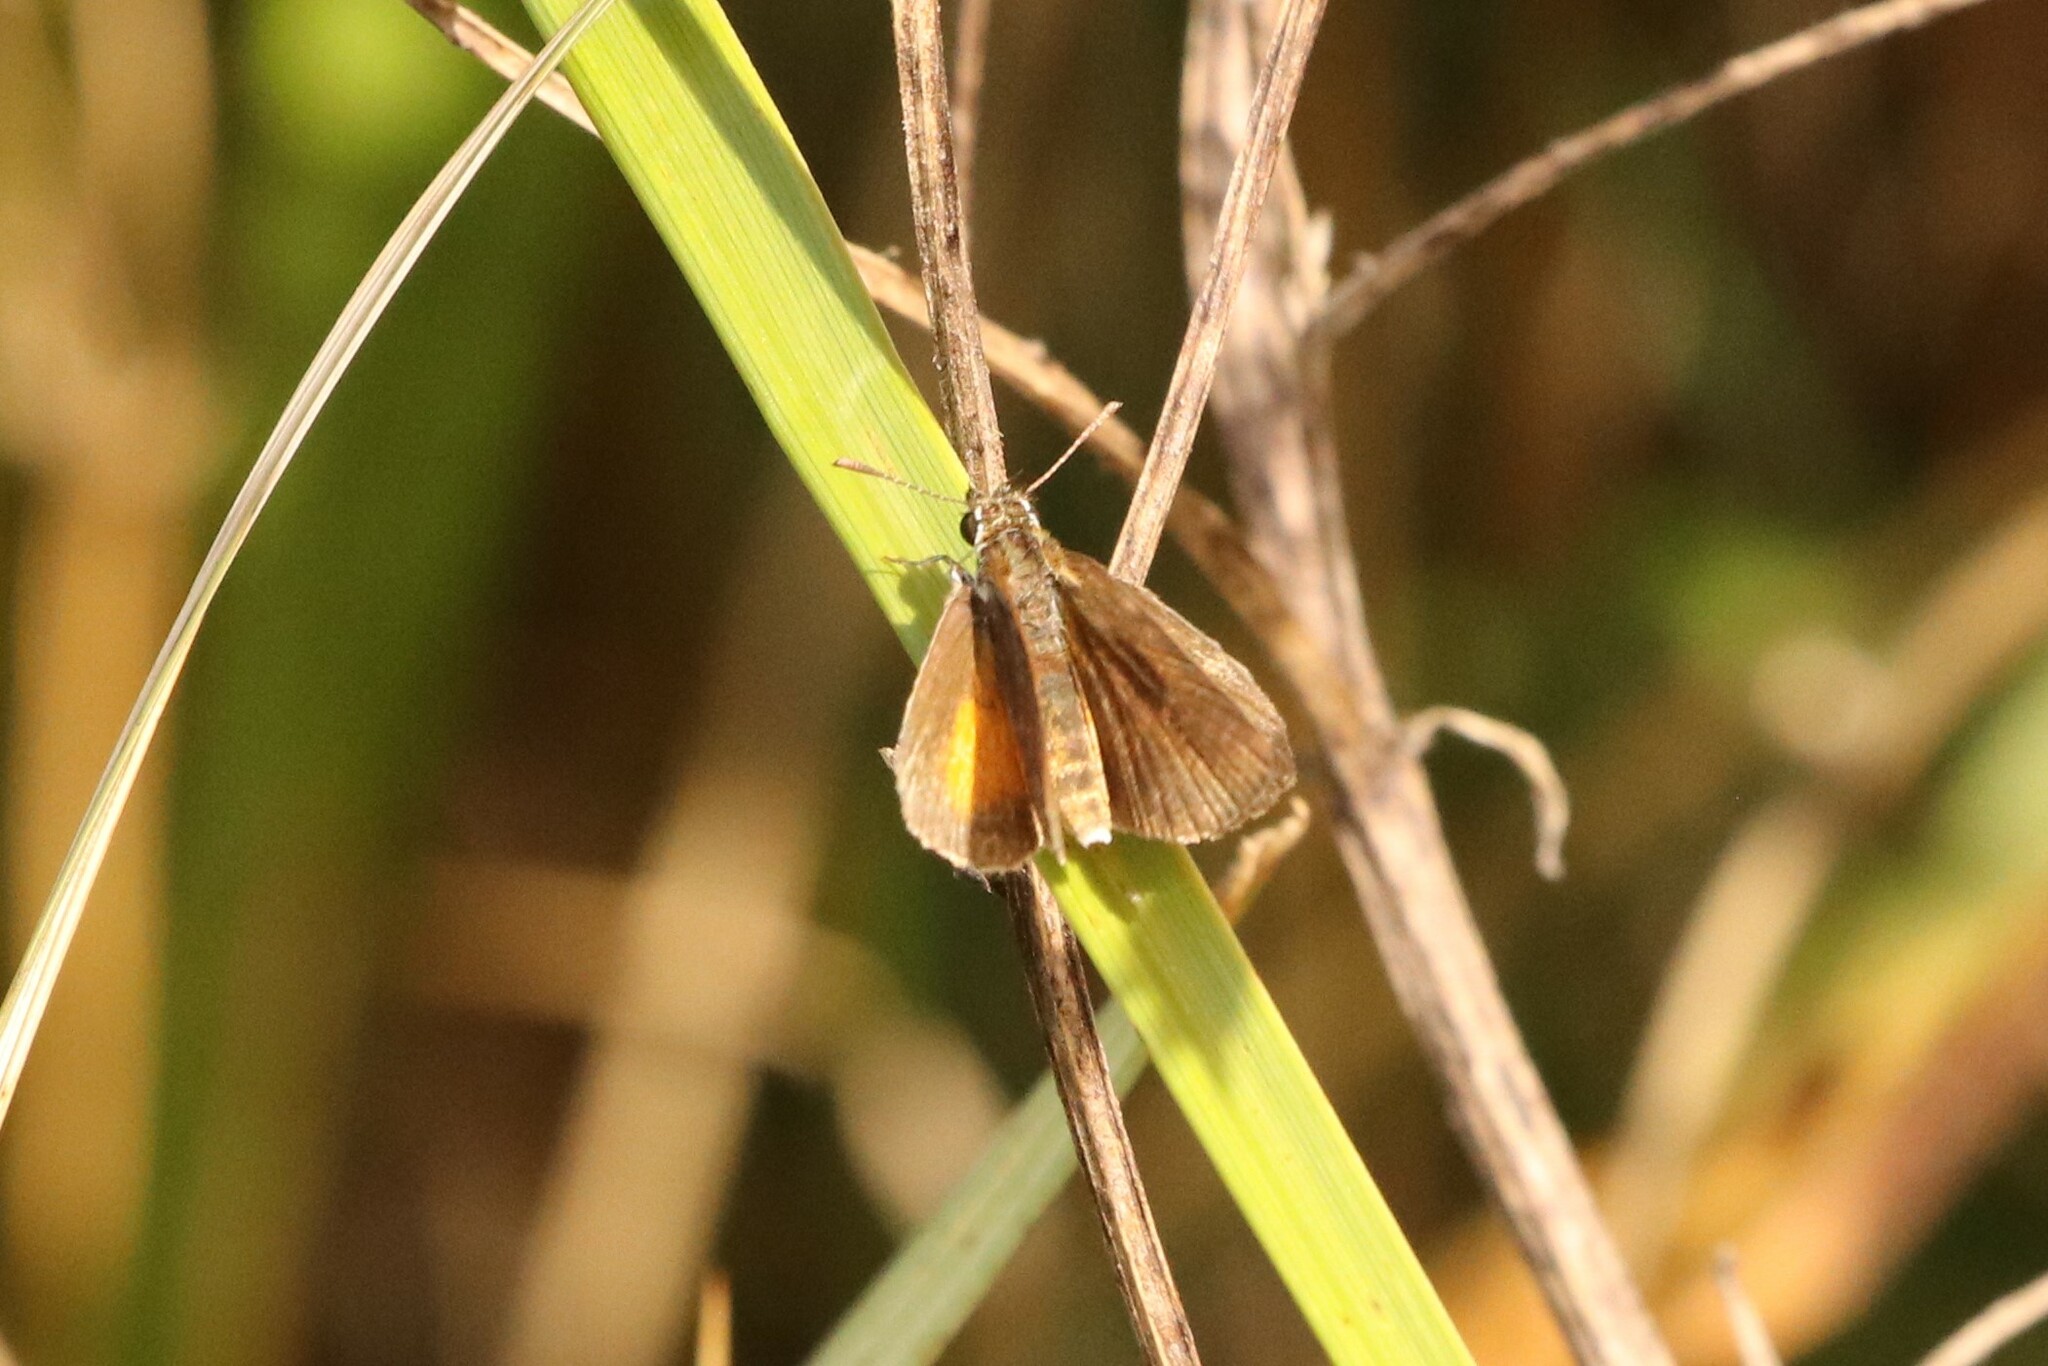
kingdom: Animalia
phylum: Arthropoda
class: Insecta
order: Lepidoptera
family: Hesperiidae
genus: Ancyloxypha
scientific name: Ancyloxypha numitor
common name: Least skipper
